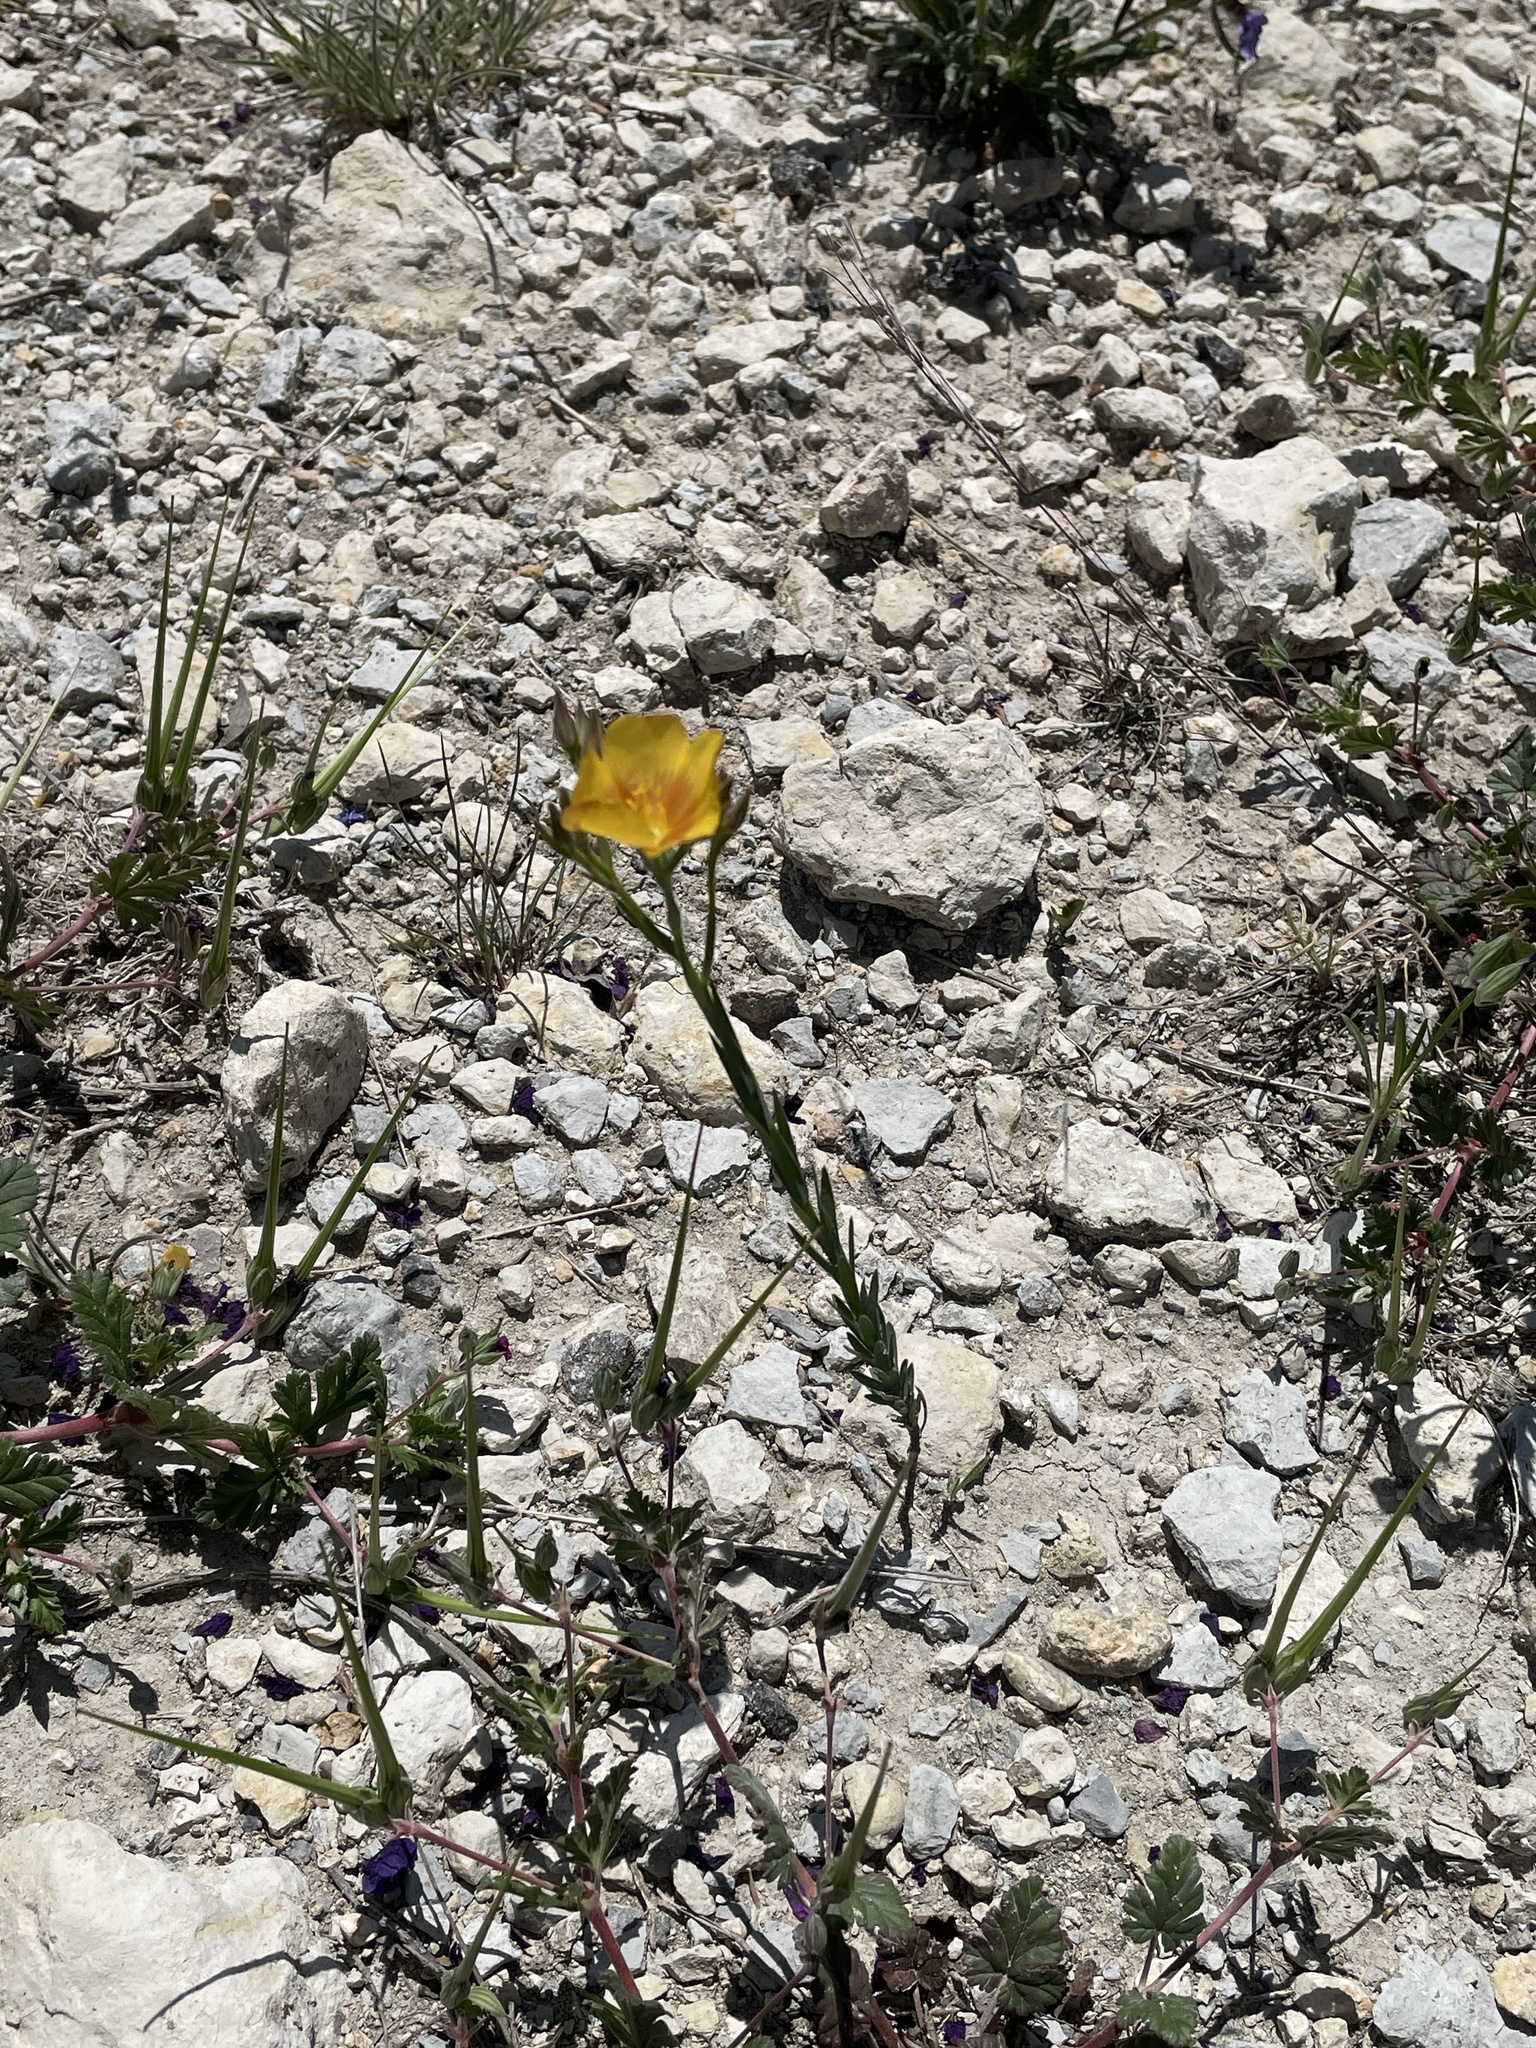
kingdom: Plantae
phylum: Tracheophyta
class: Magnoliopsida
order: Malpighiales
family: Linaceae
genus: Linum
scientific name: Linum rigidum
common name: Stiff-stem flax
